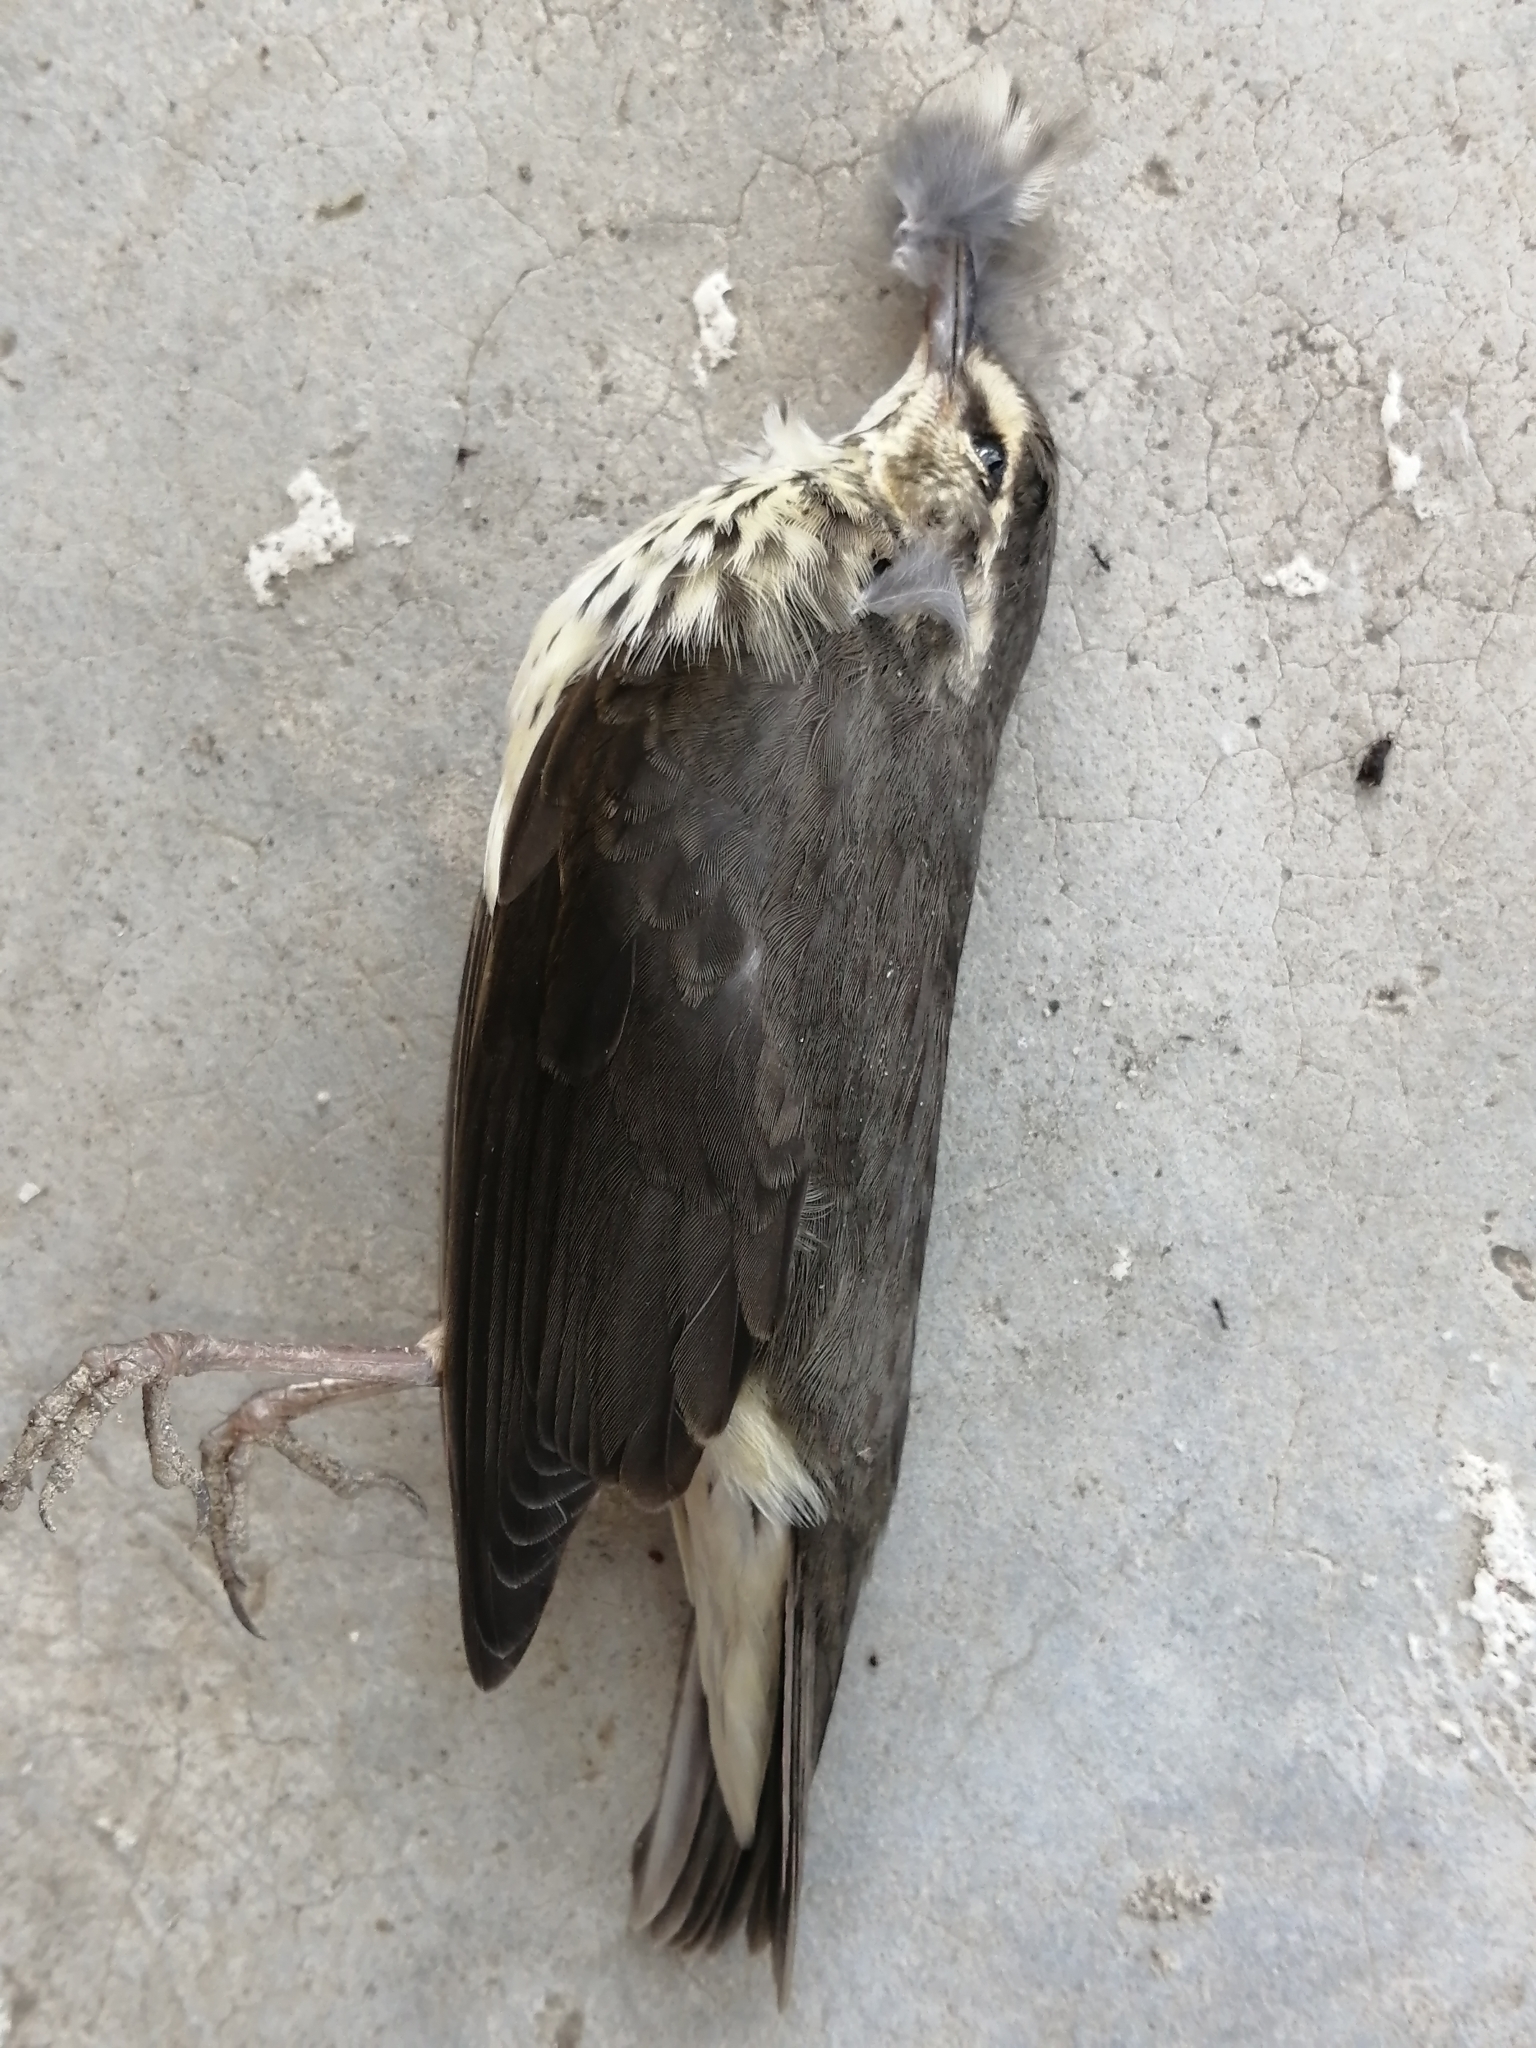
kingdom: Animalia
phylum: Chordata
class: Aves
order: Passeriformes
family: Parulidae
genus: Parkesia
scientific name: Parkesia noveboracensis
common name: Northern waterthrush
